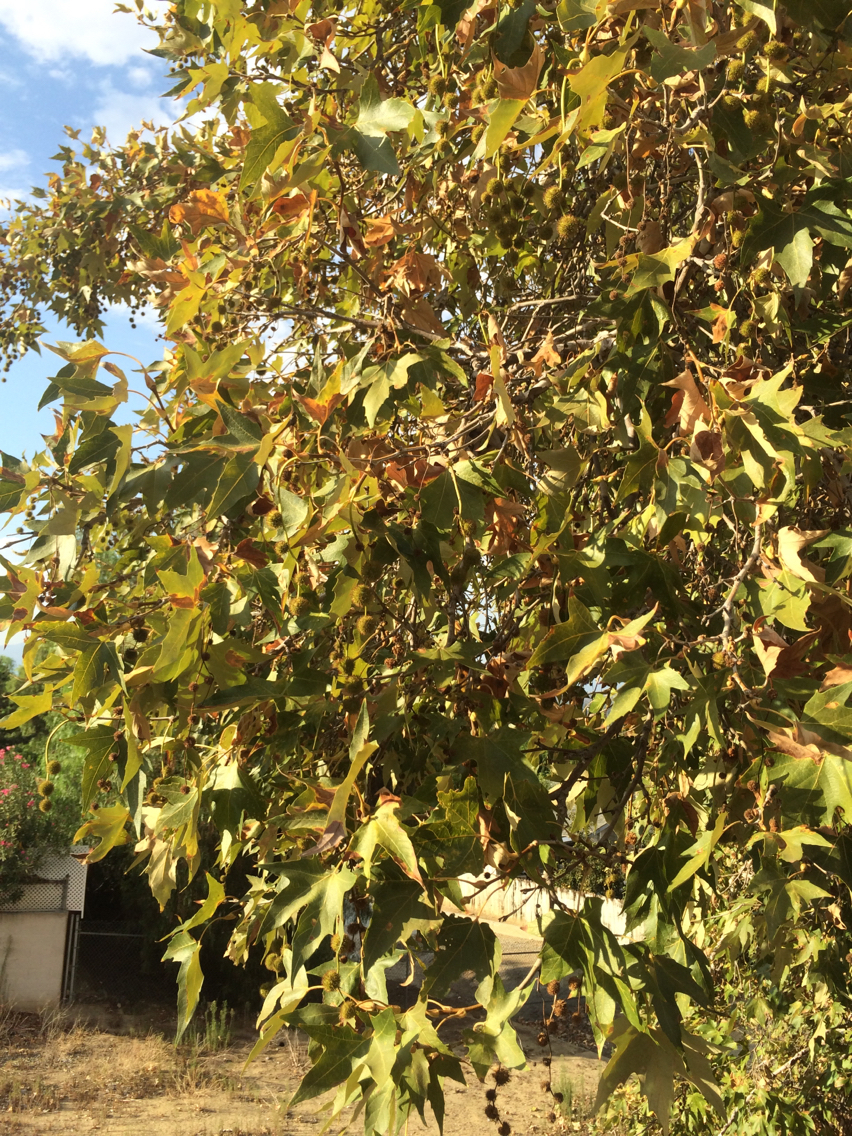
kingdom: Plantae
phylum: Tracheophyta
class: Magnoliopsida
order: Proteales
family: Platanaceae
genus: Platanus
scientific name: Platanus racemosa
